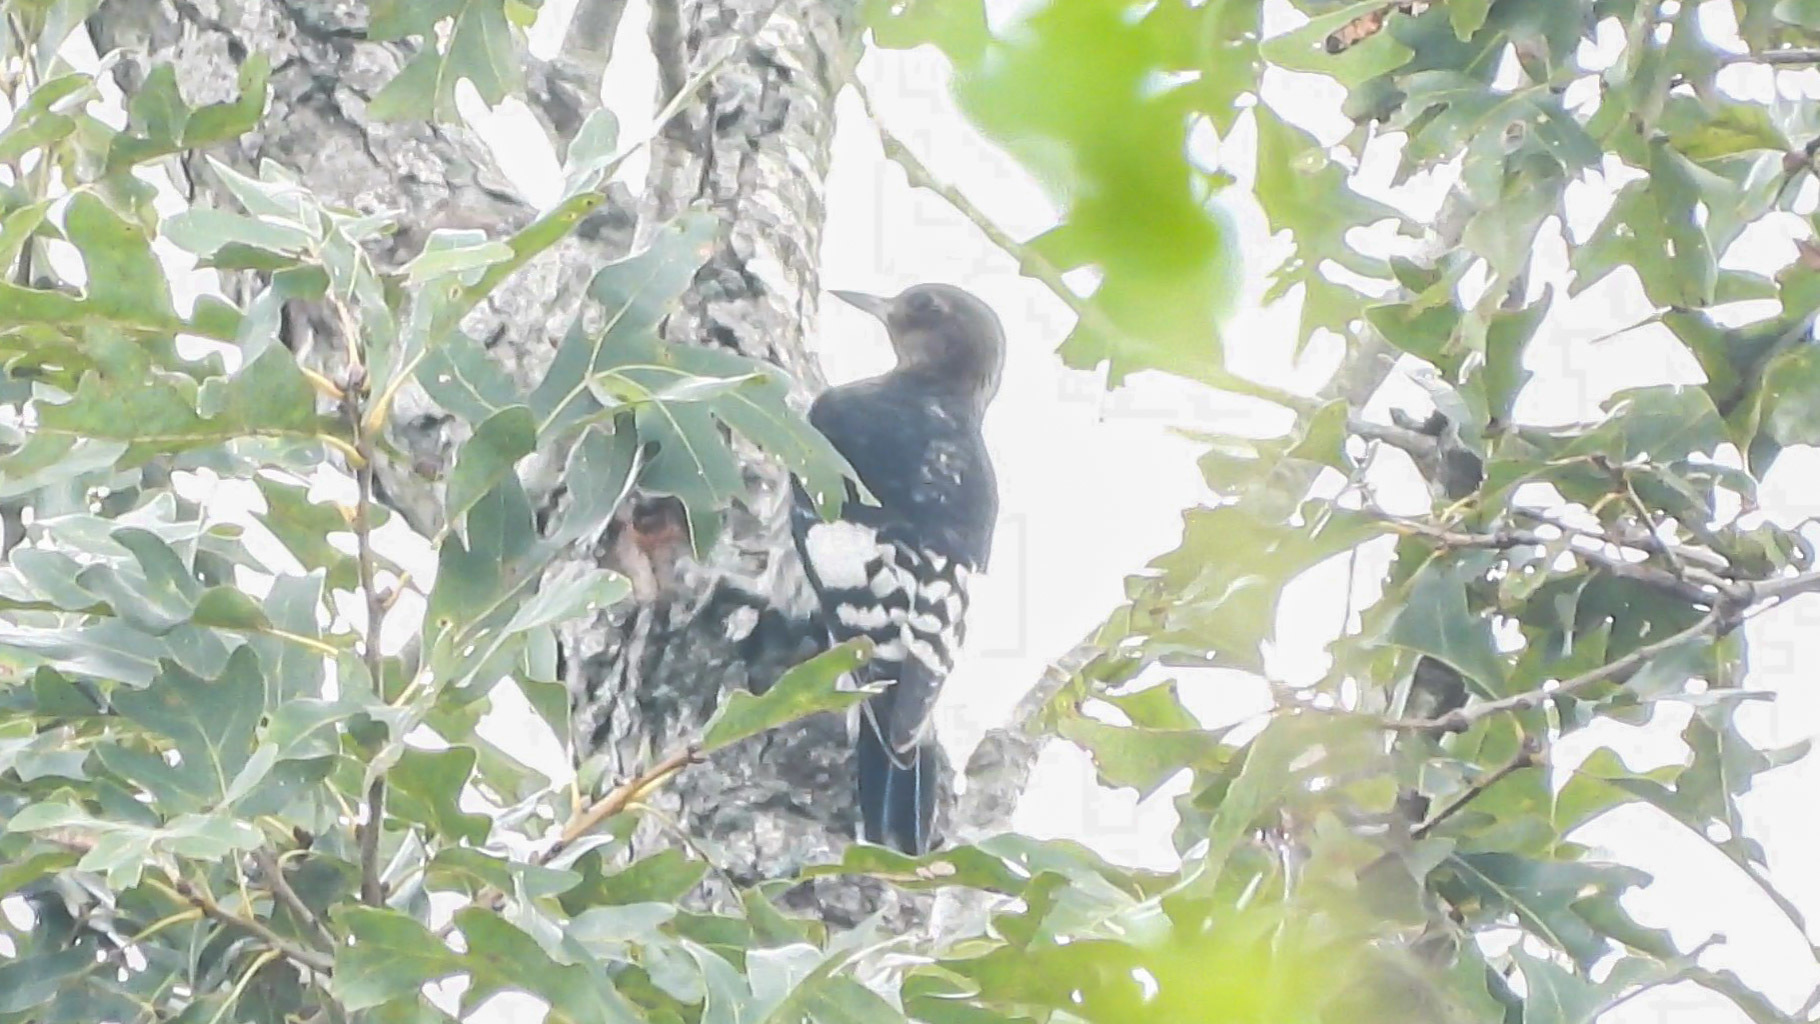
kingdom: Animalia
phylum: Chordata
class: Aves
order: Piciformes
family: Picidae
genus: Melanerpes
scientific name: Melanerpes erythrocephalus
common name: Red-headed woodpecker
